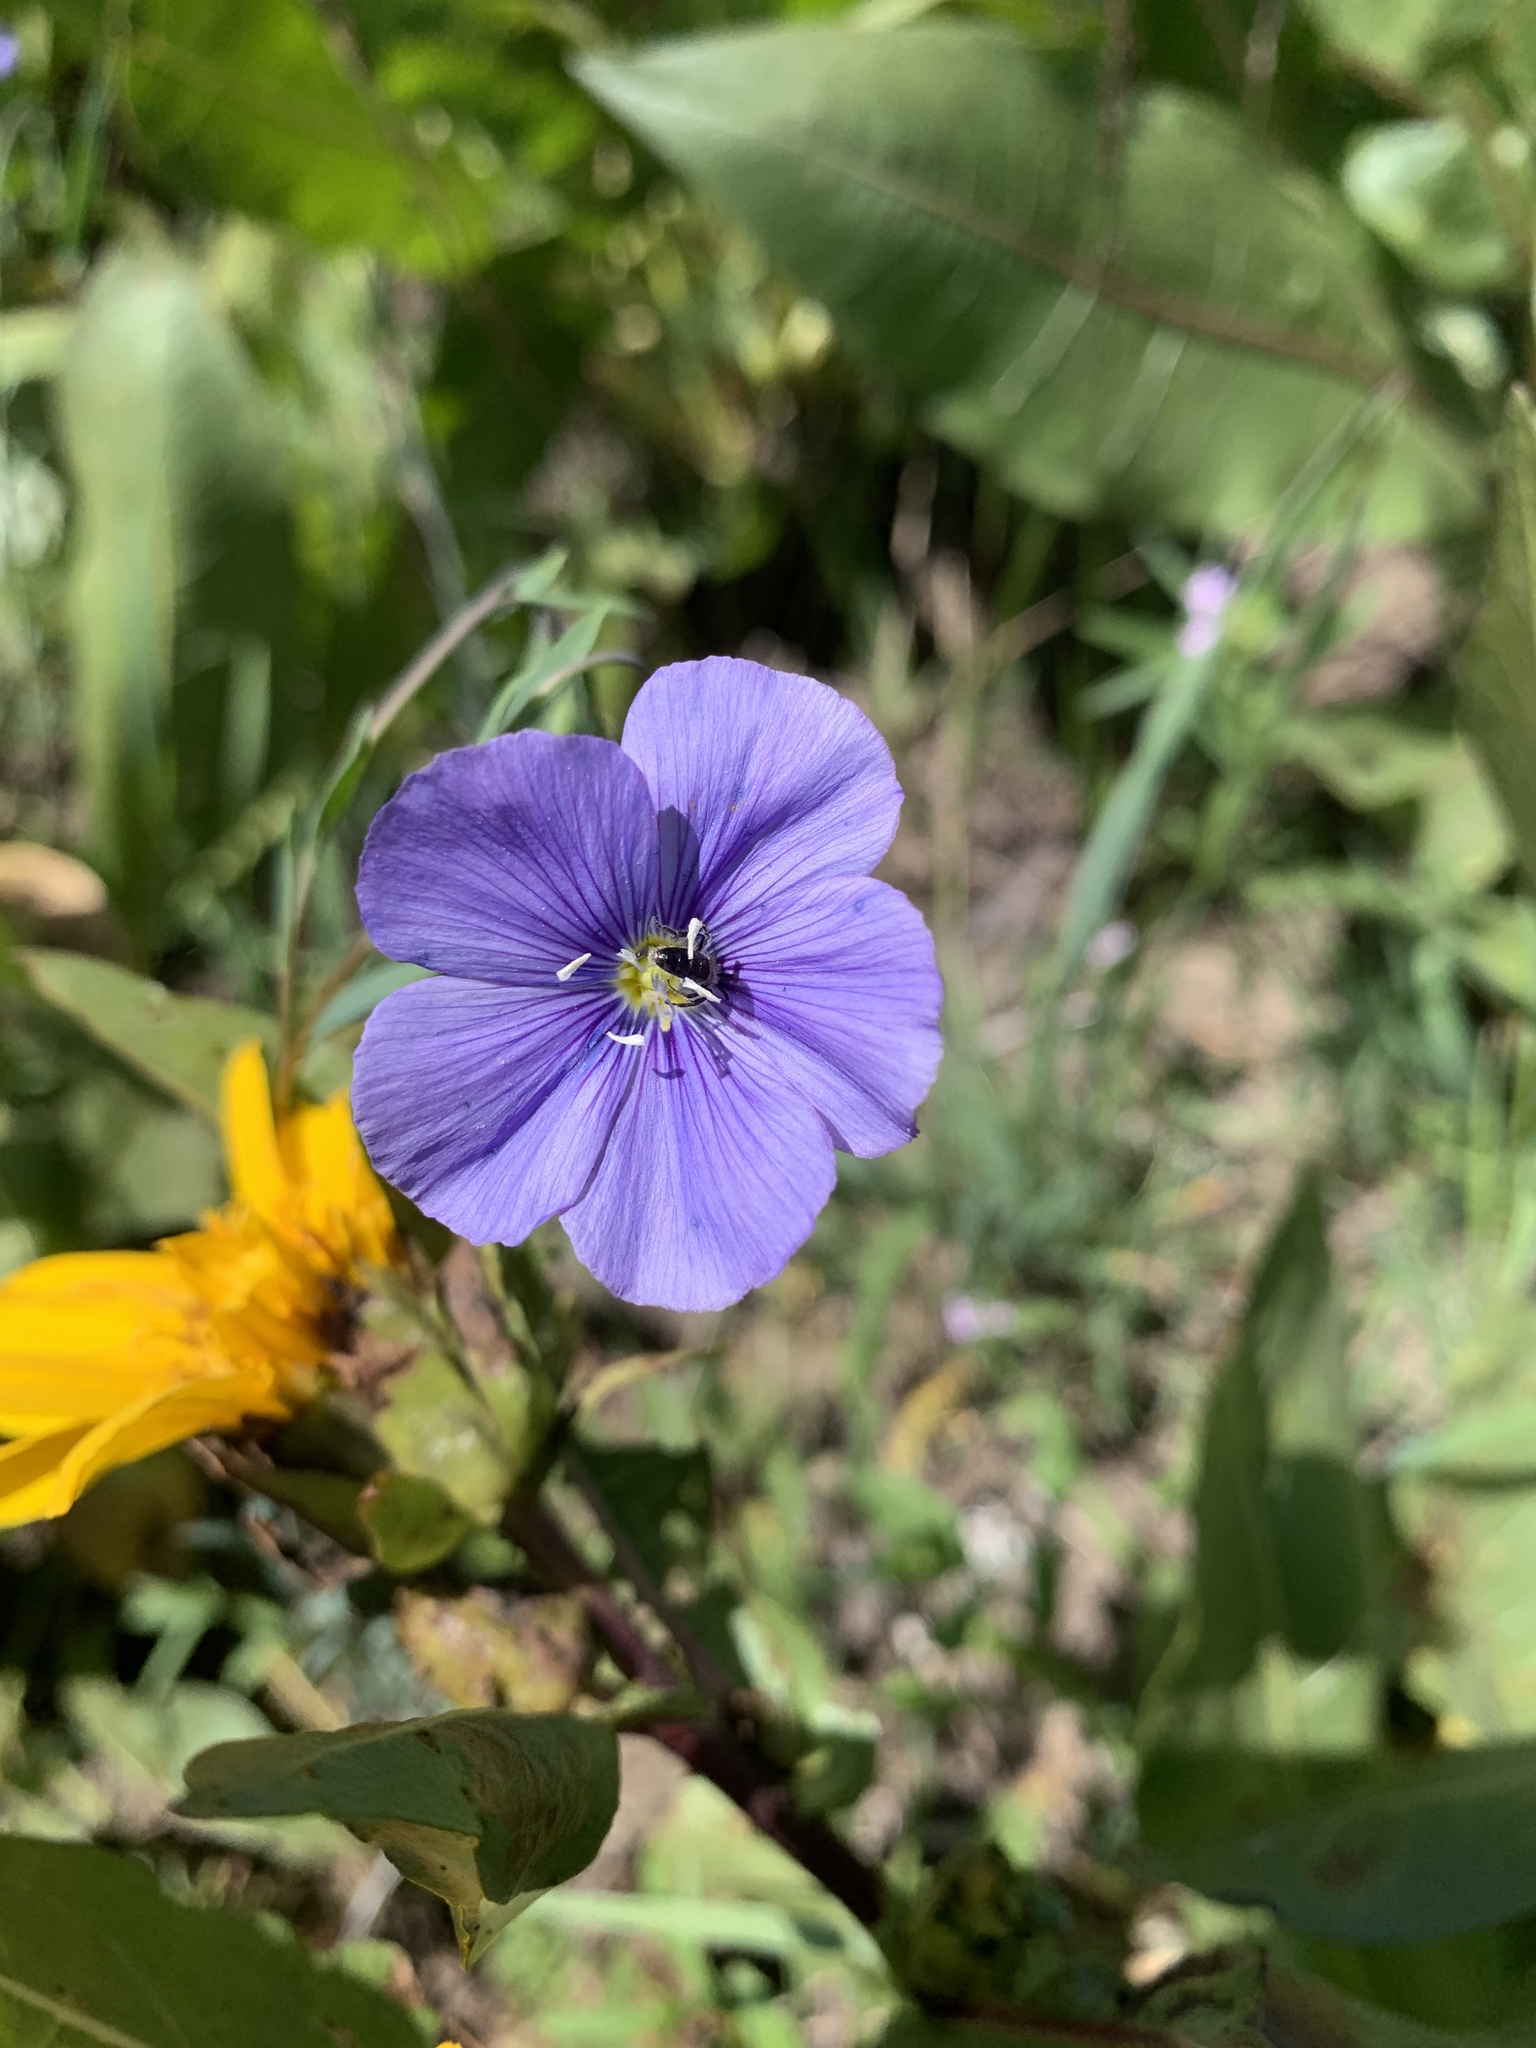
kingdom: Plantae
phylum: Tracheophyta
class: Magnoliopsida
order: Malpighiales
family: Linaceae
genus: Linum
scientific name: Linum lewisii
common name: Prairie flax
